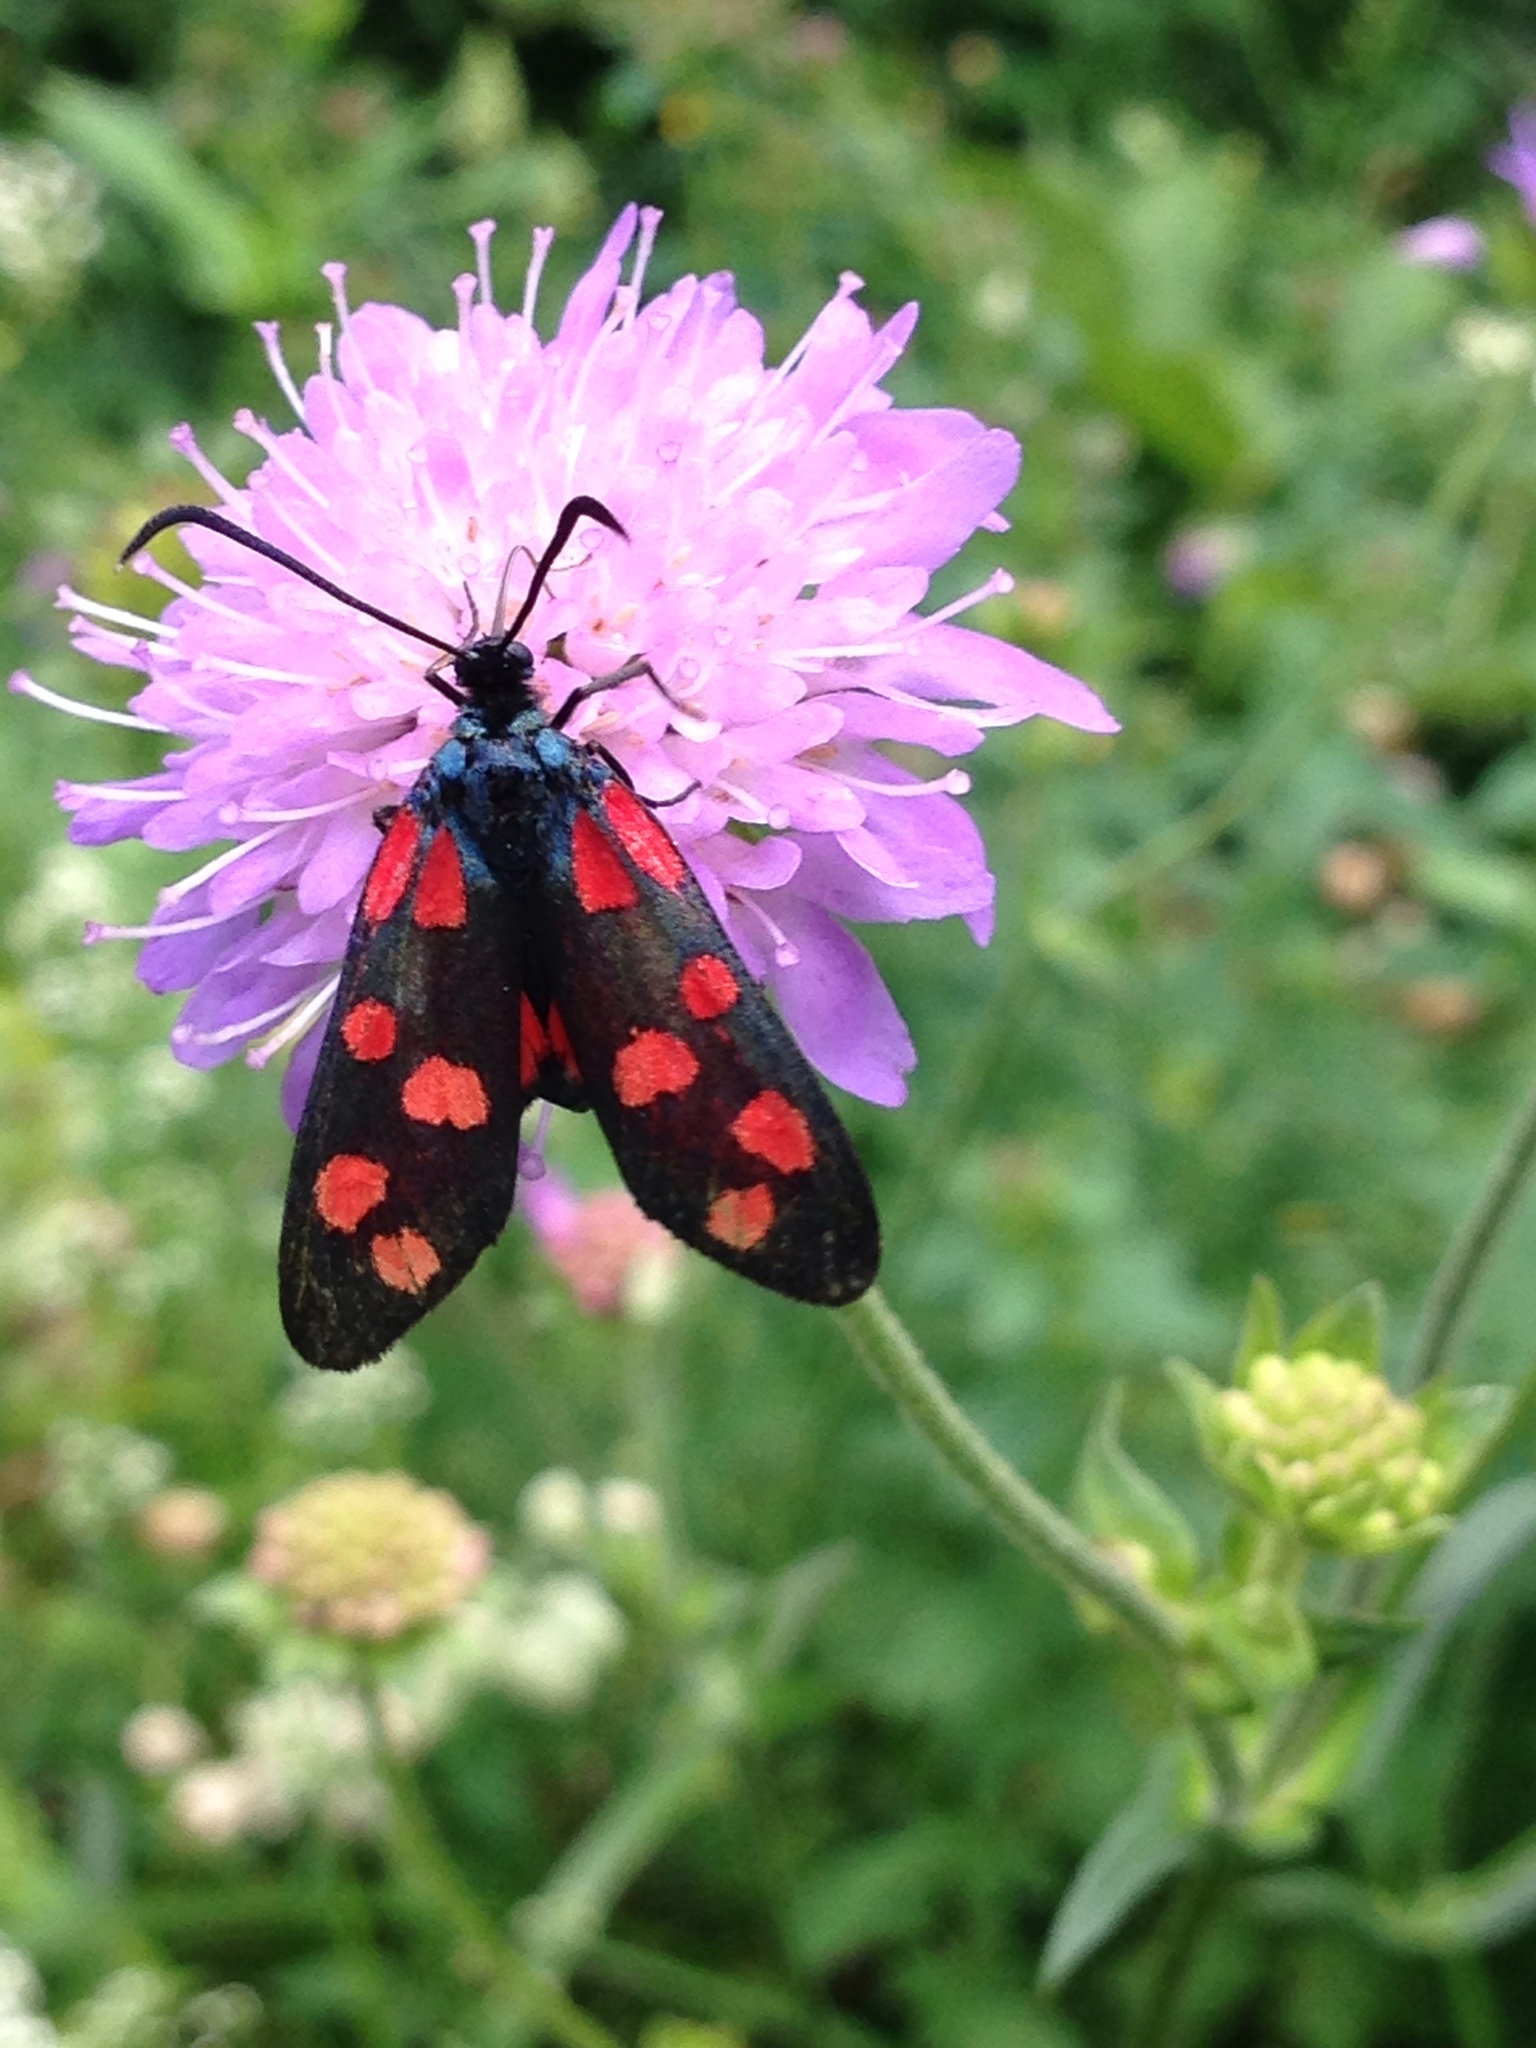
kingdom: Animalia
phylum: Arthropoda
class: Insecta
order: Lepidoptera
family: Zygaenidae
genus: Zygaena
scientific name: Zygaena filipendulae
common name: Six-spot burnet
